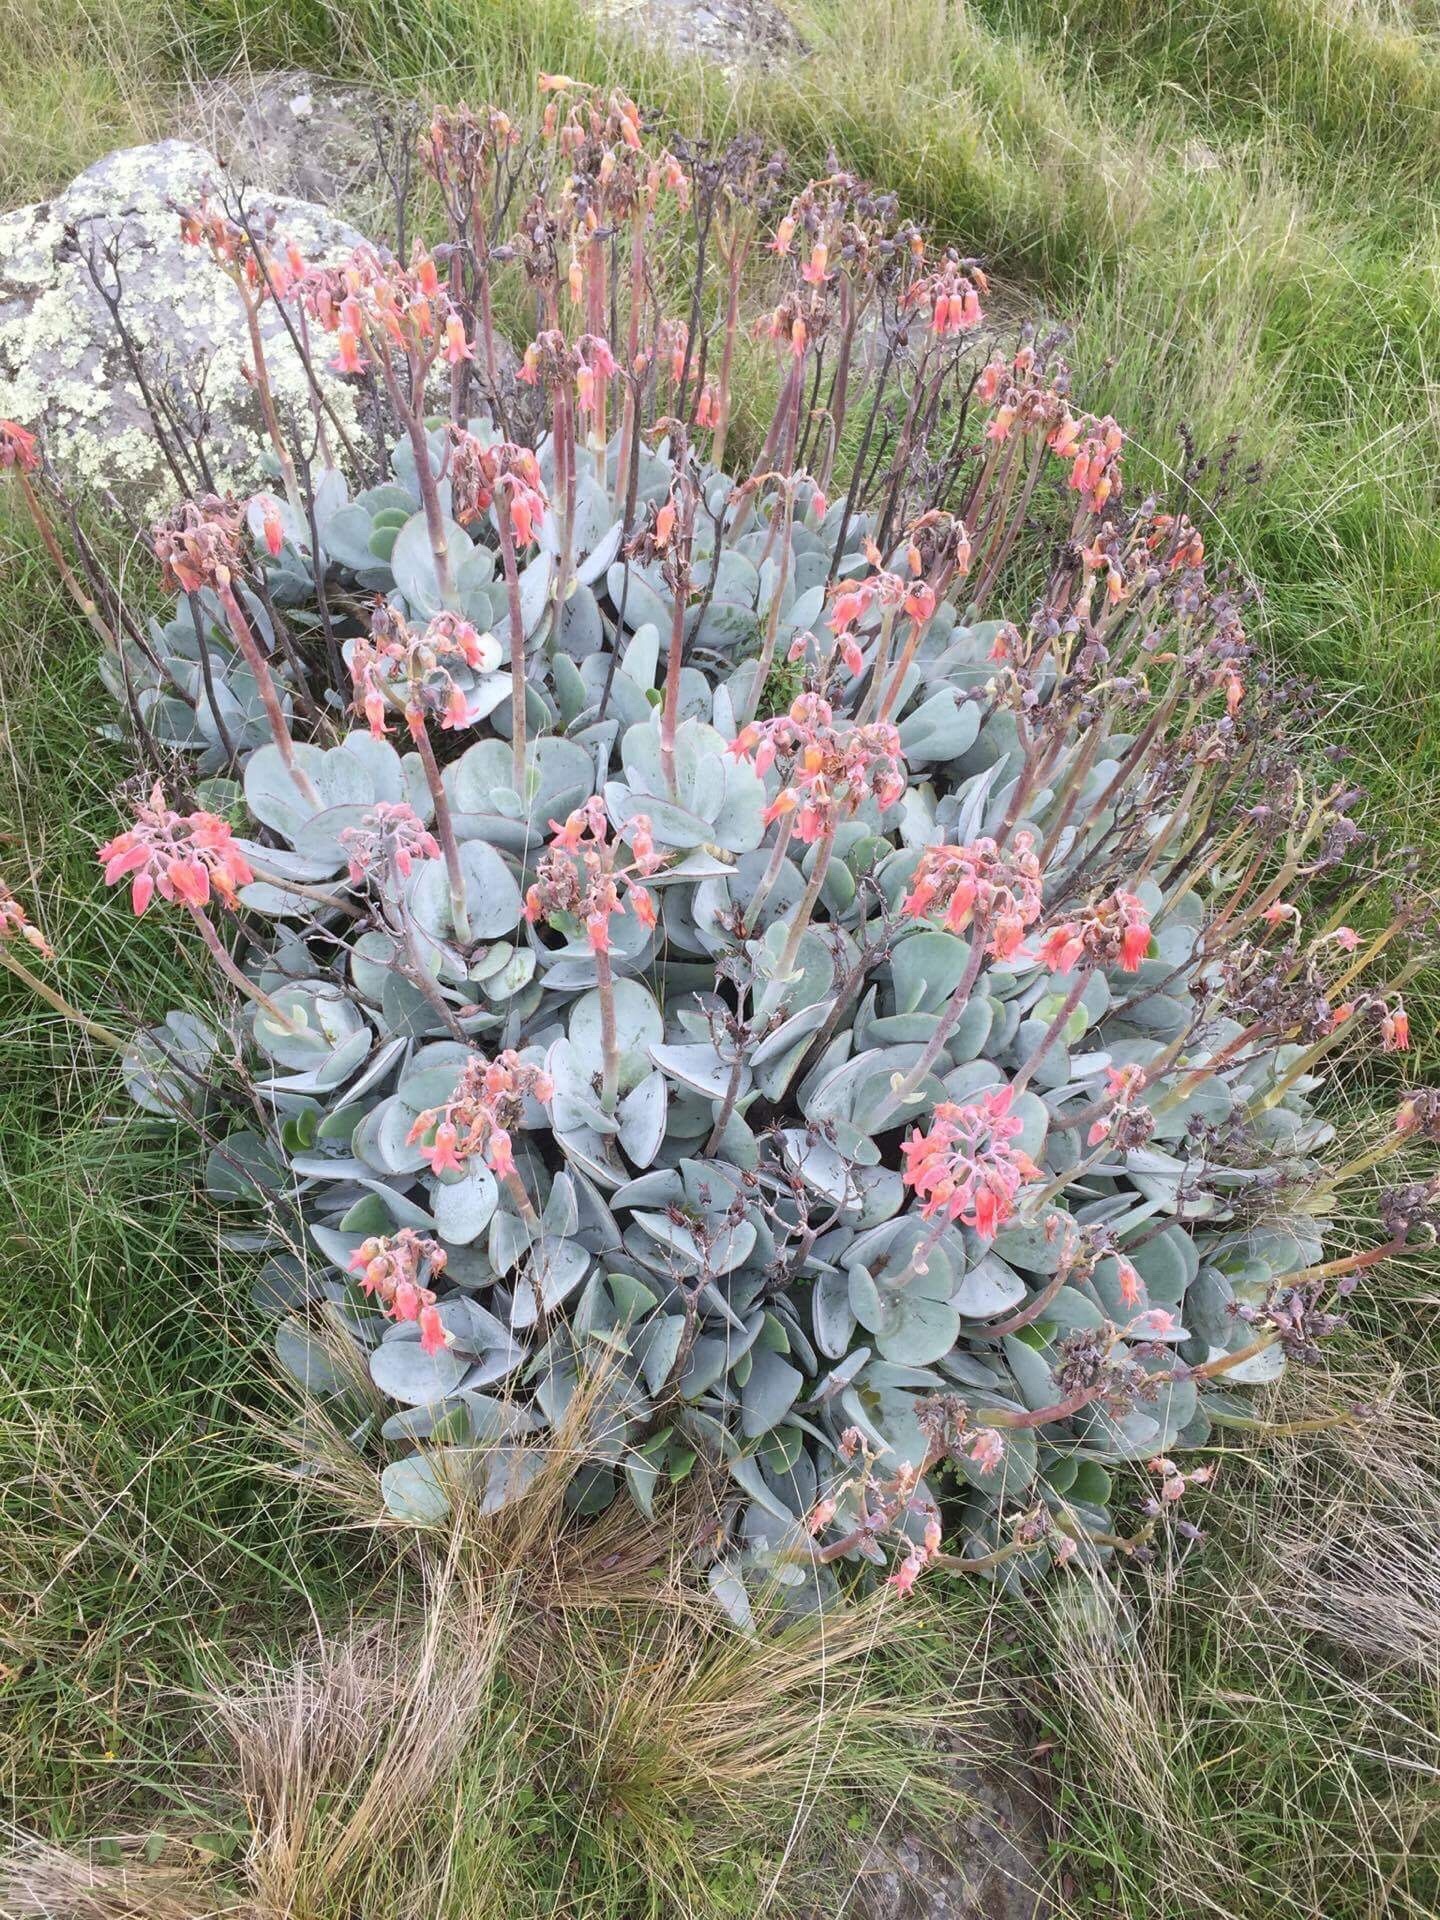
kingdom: Plantae
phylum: Tracheophyta
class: Magnoliopsida
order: Saxifragales
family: Crassulaceae
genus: Cotyledon
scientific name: Cotyledon orbiculata
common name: Pig's ear
